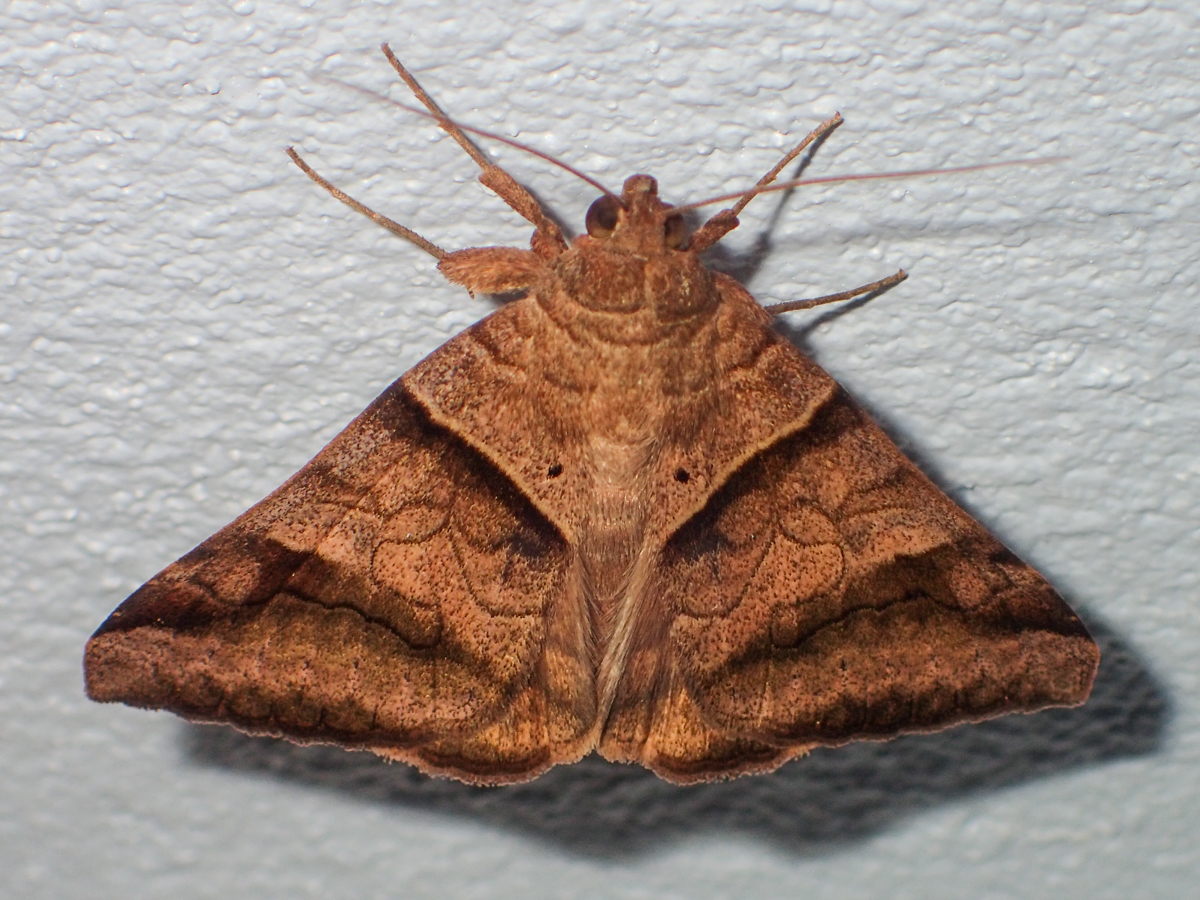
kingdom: Animalia
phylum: Arthropoda
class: Insecta
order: Lepidoptera
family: Erebidae
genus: Mocis
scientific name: Mocis undata
